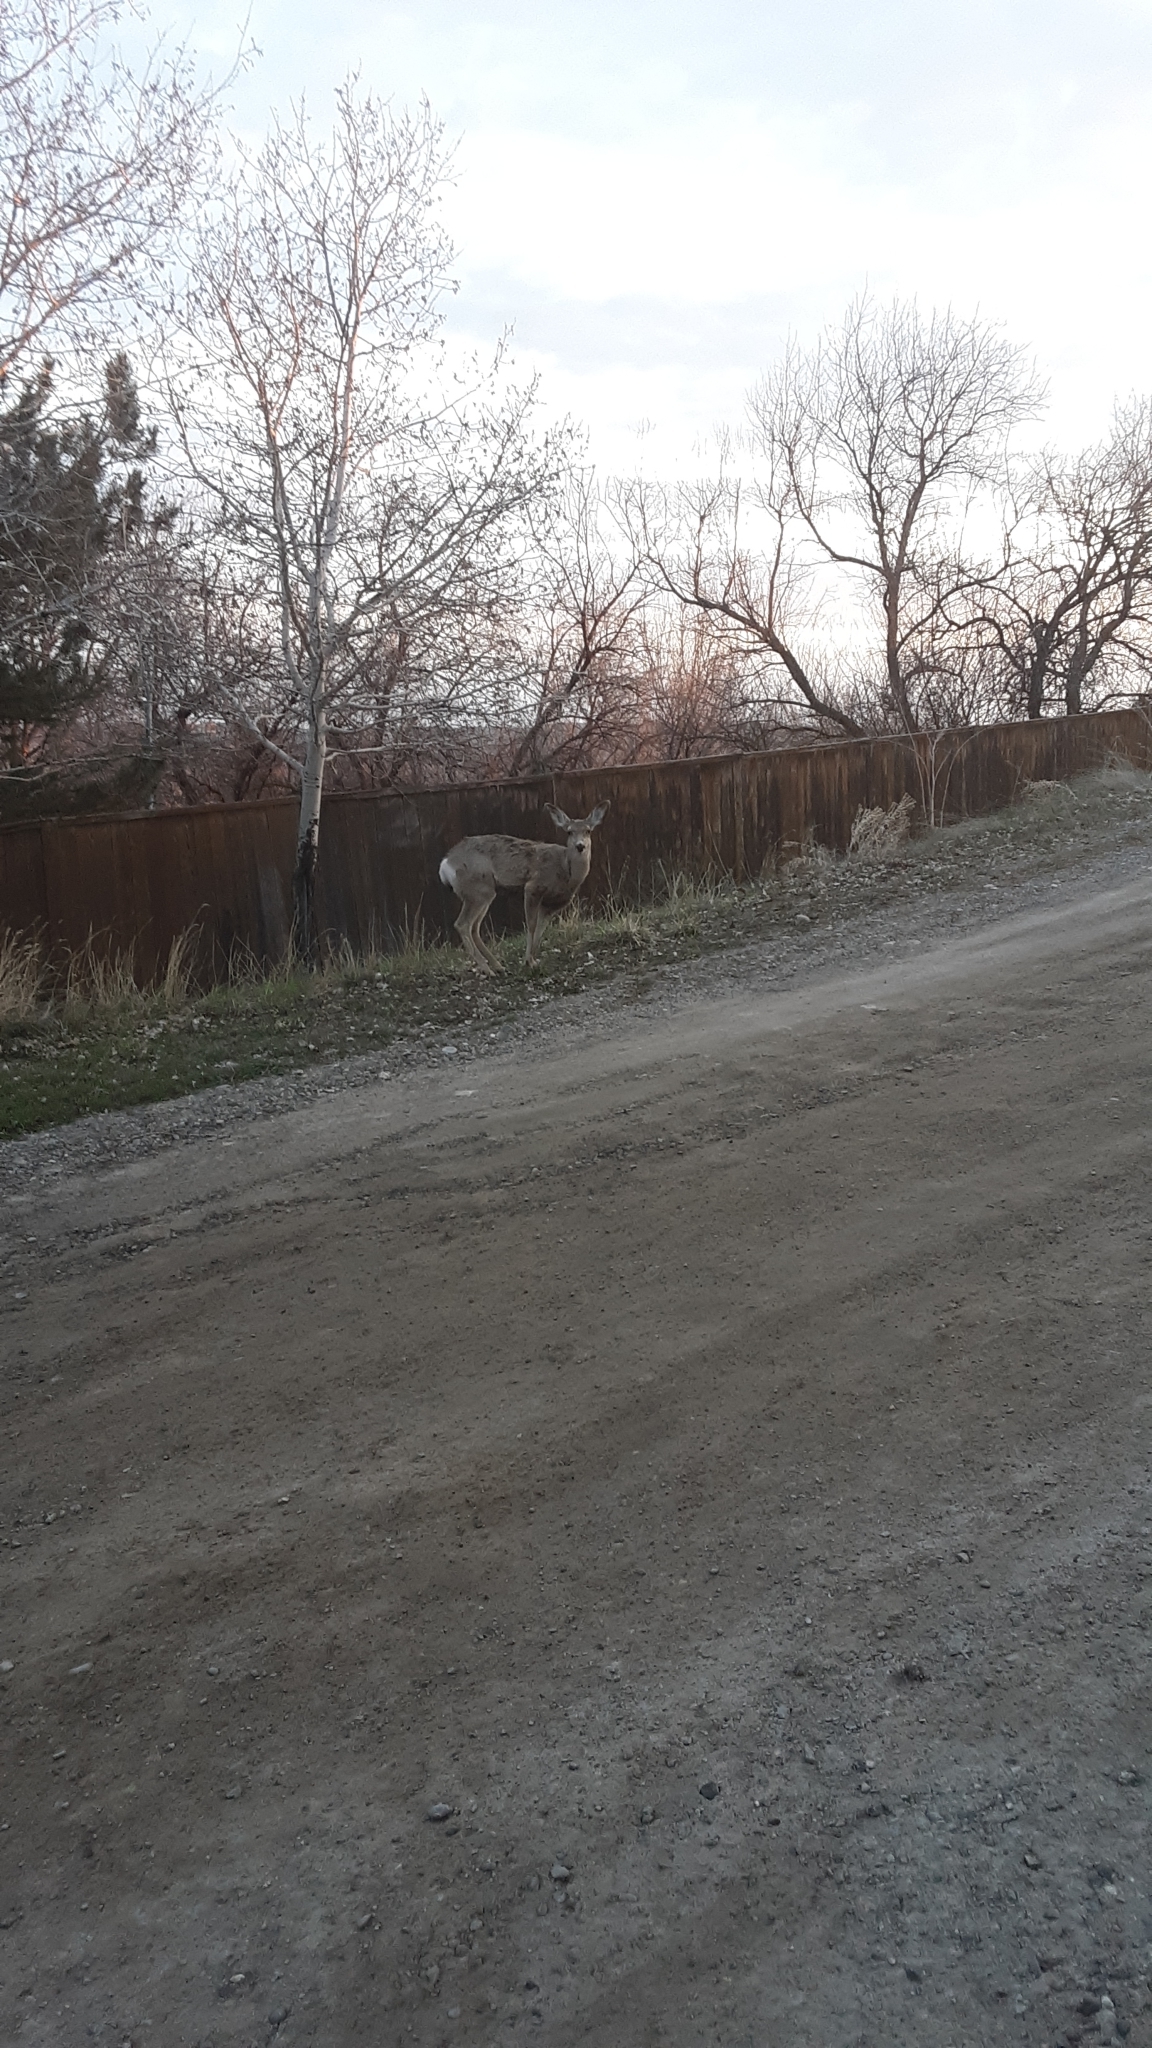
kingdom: Animalia
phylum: Chordata
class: Mammalia
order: Artiodactyla
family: Cervidae
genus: Odocoileus
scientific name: Odocoileus hemionus
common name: Mule deer
